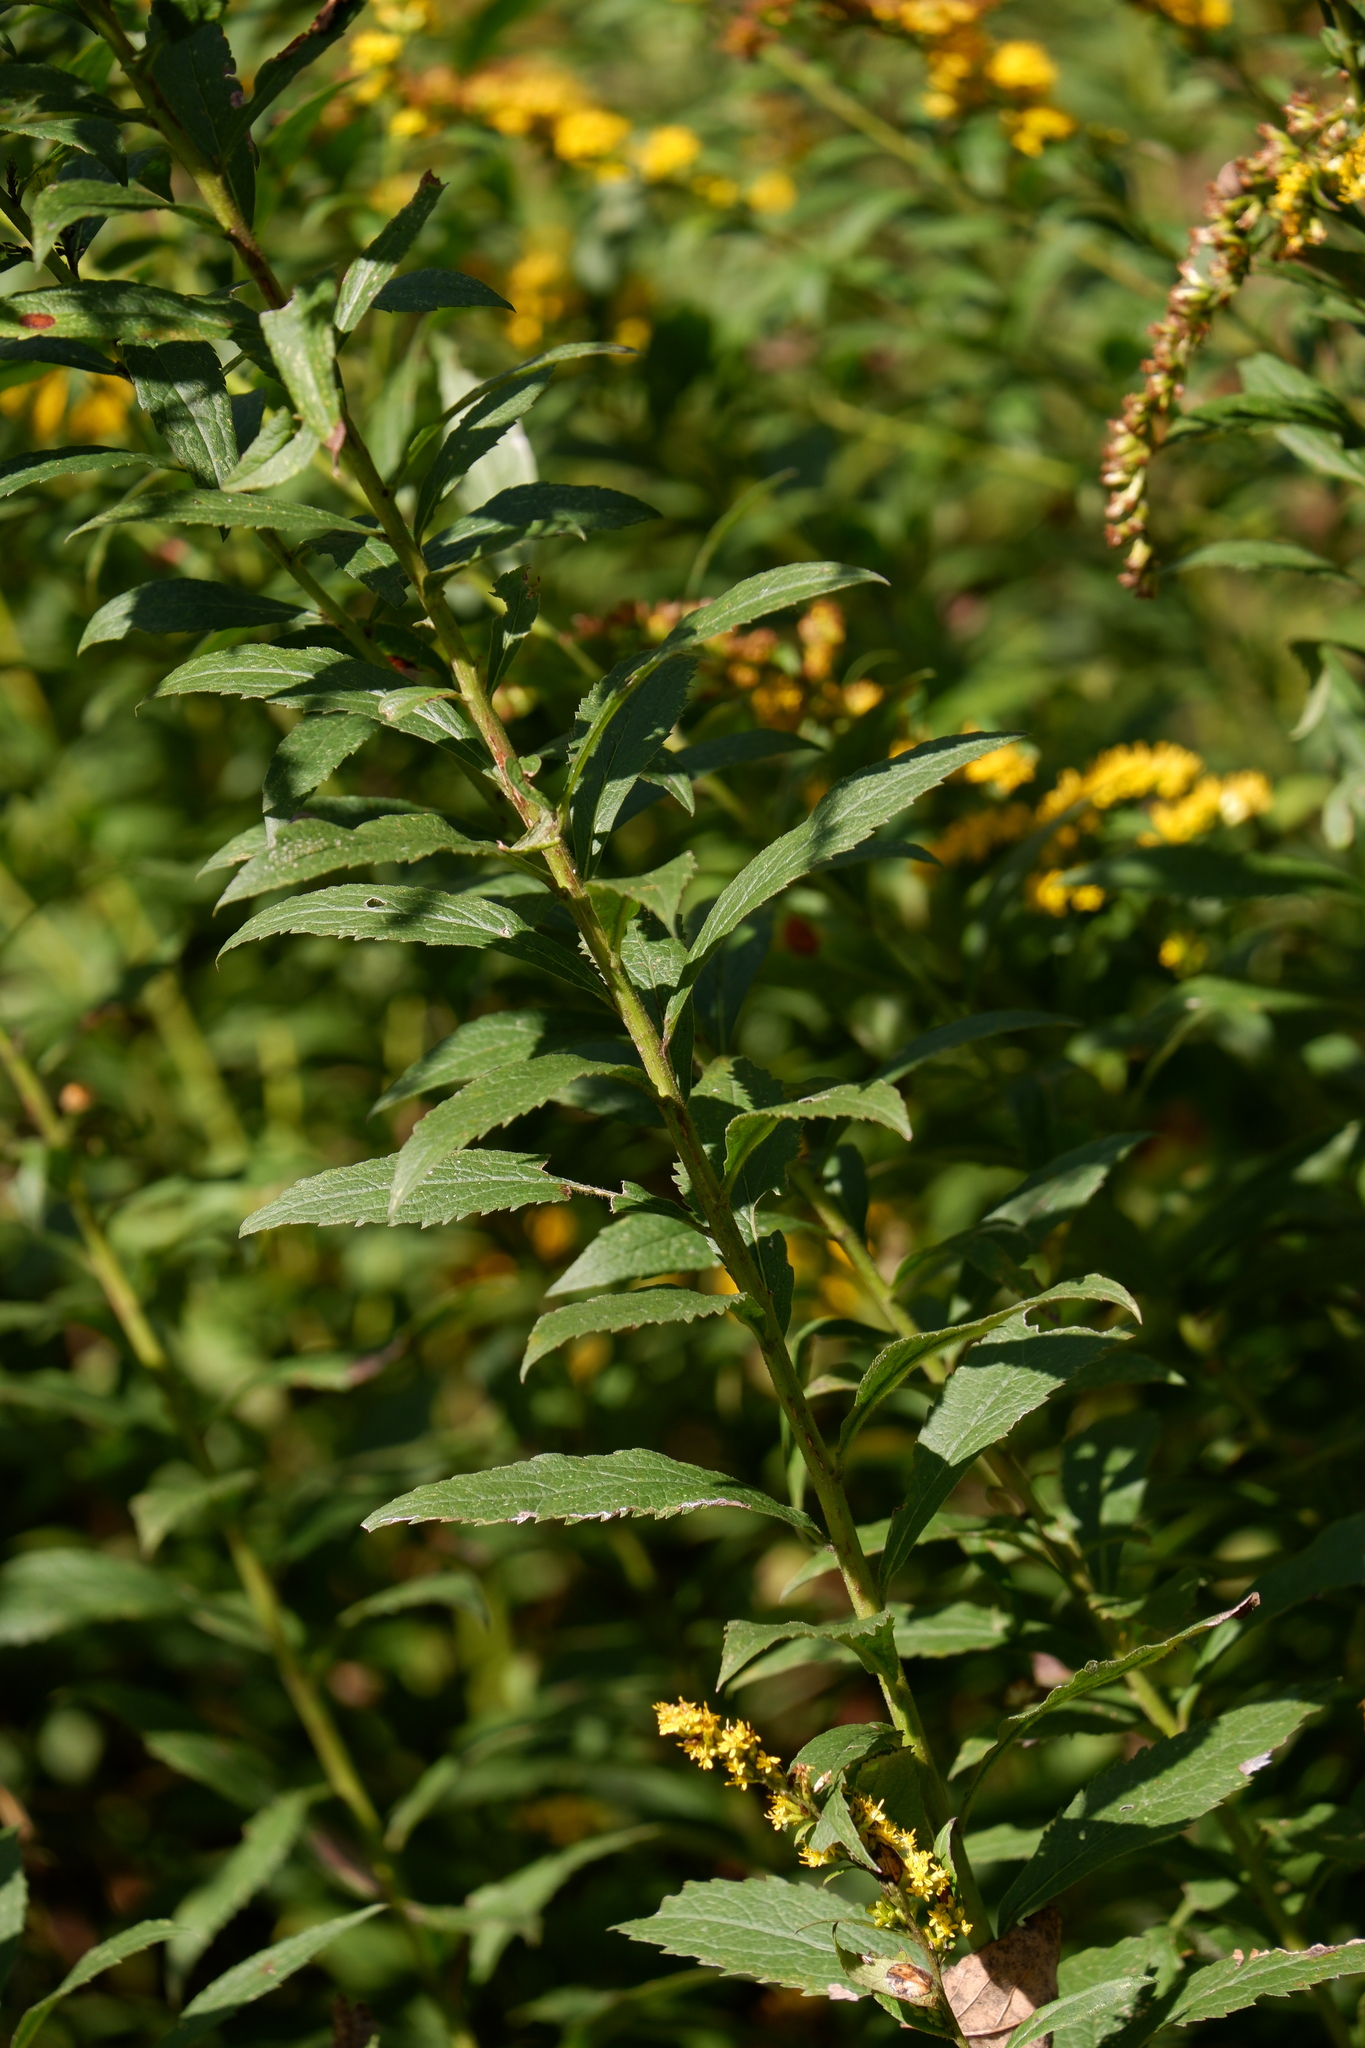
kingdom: Plantae
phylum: Tracheophyta
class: Magnoliopsida
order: Asterales
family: Asteraceae
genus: Solidago
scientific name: Solidago rugosa
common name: Rough-stemmed goldenrod
